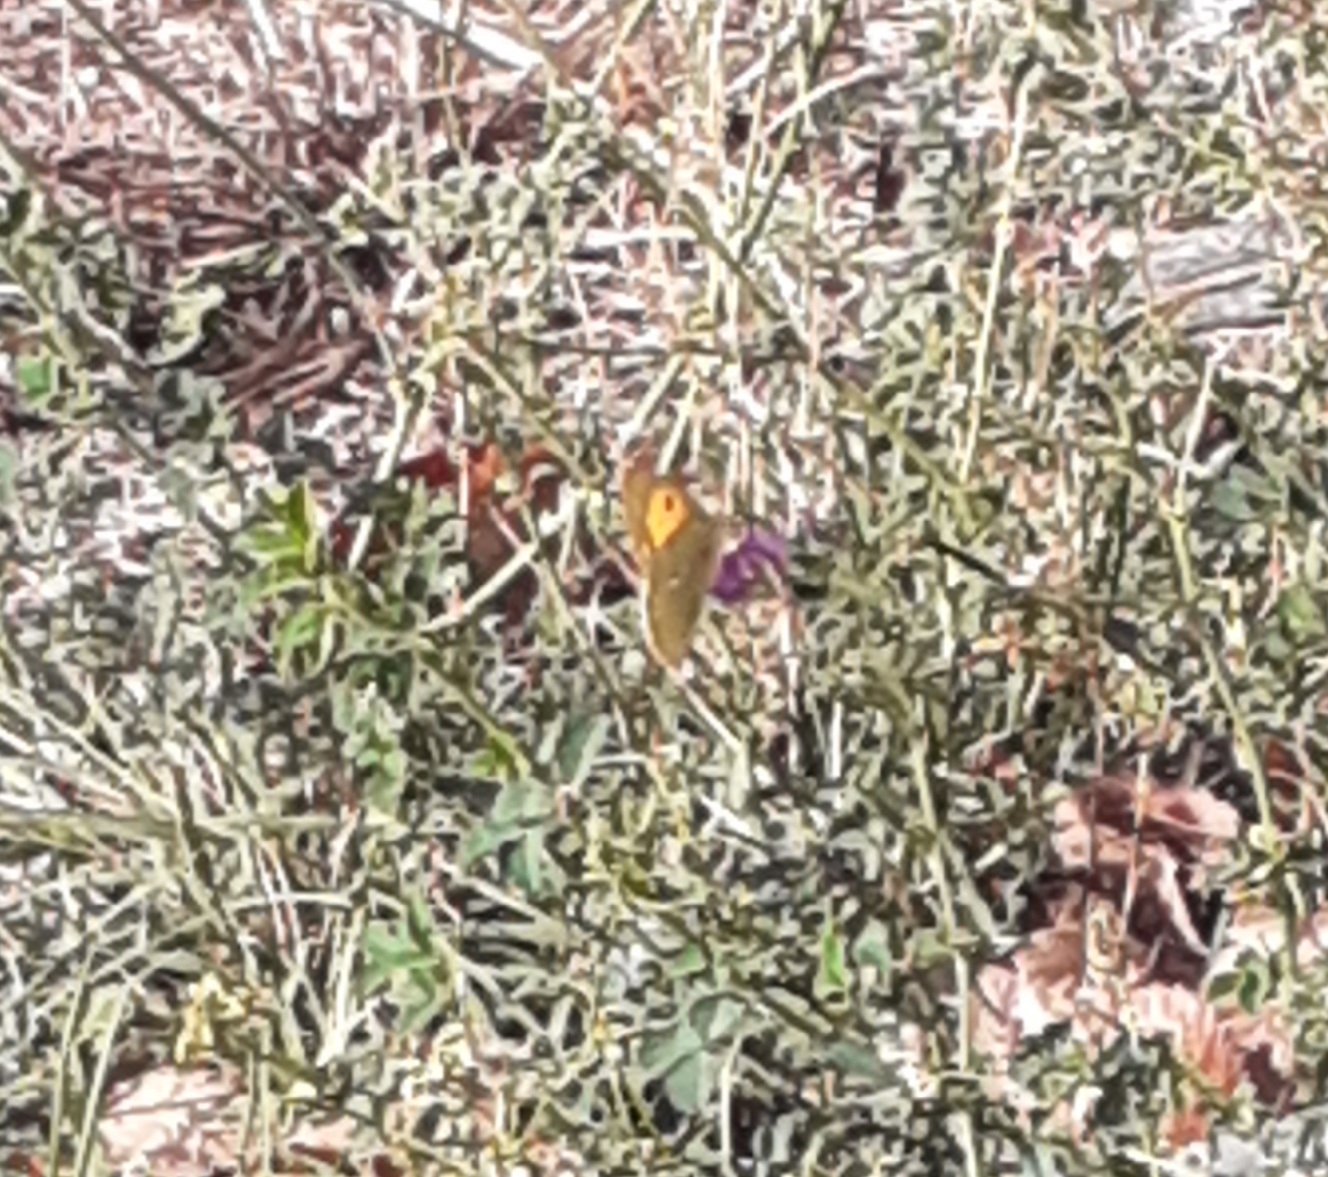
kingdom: Animalia
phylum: Arthropoda
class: Insecta
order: Lepidoptera
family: Pieridae
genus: Colias
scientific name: Colias croceus
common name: Clouded yellow
